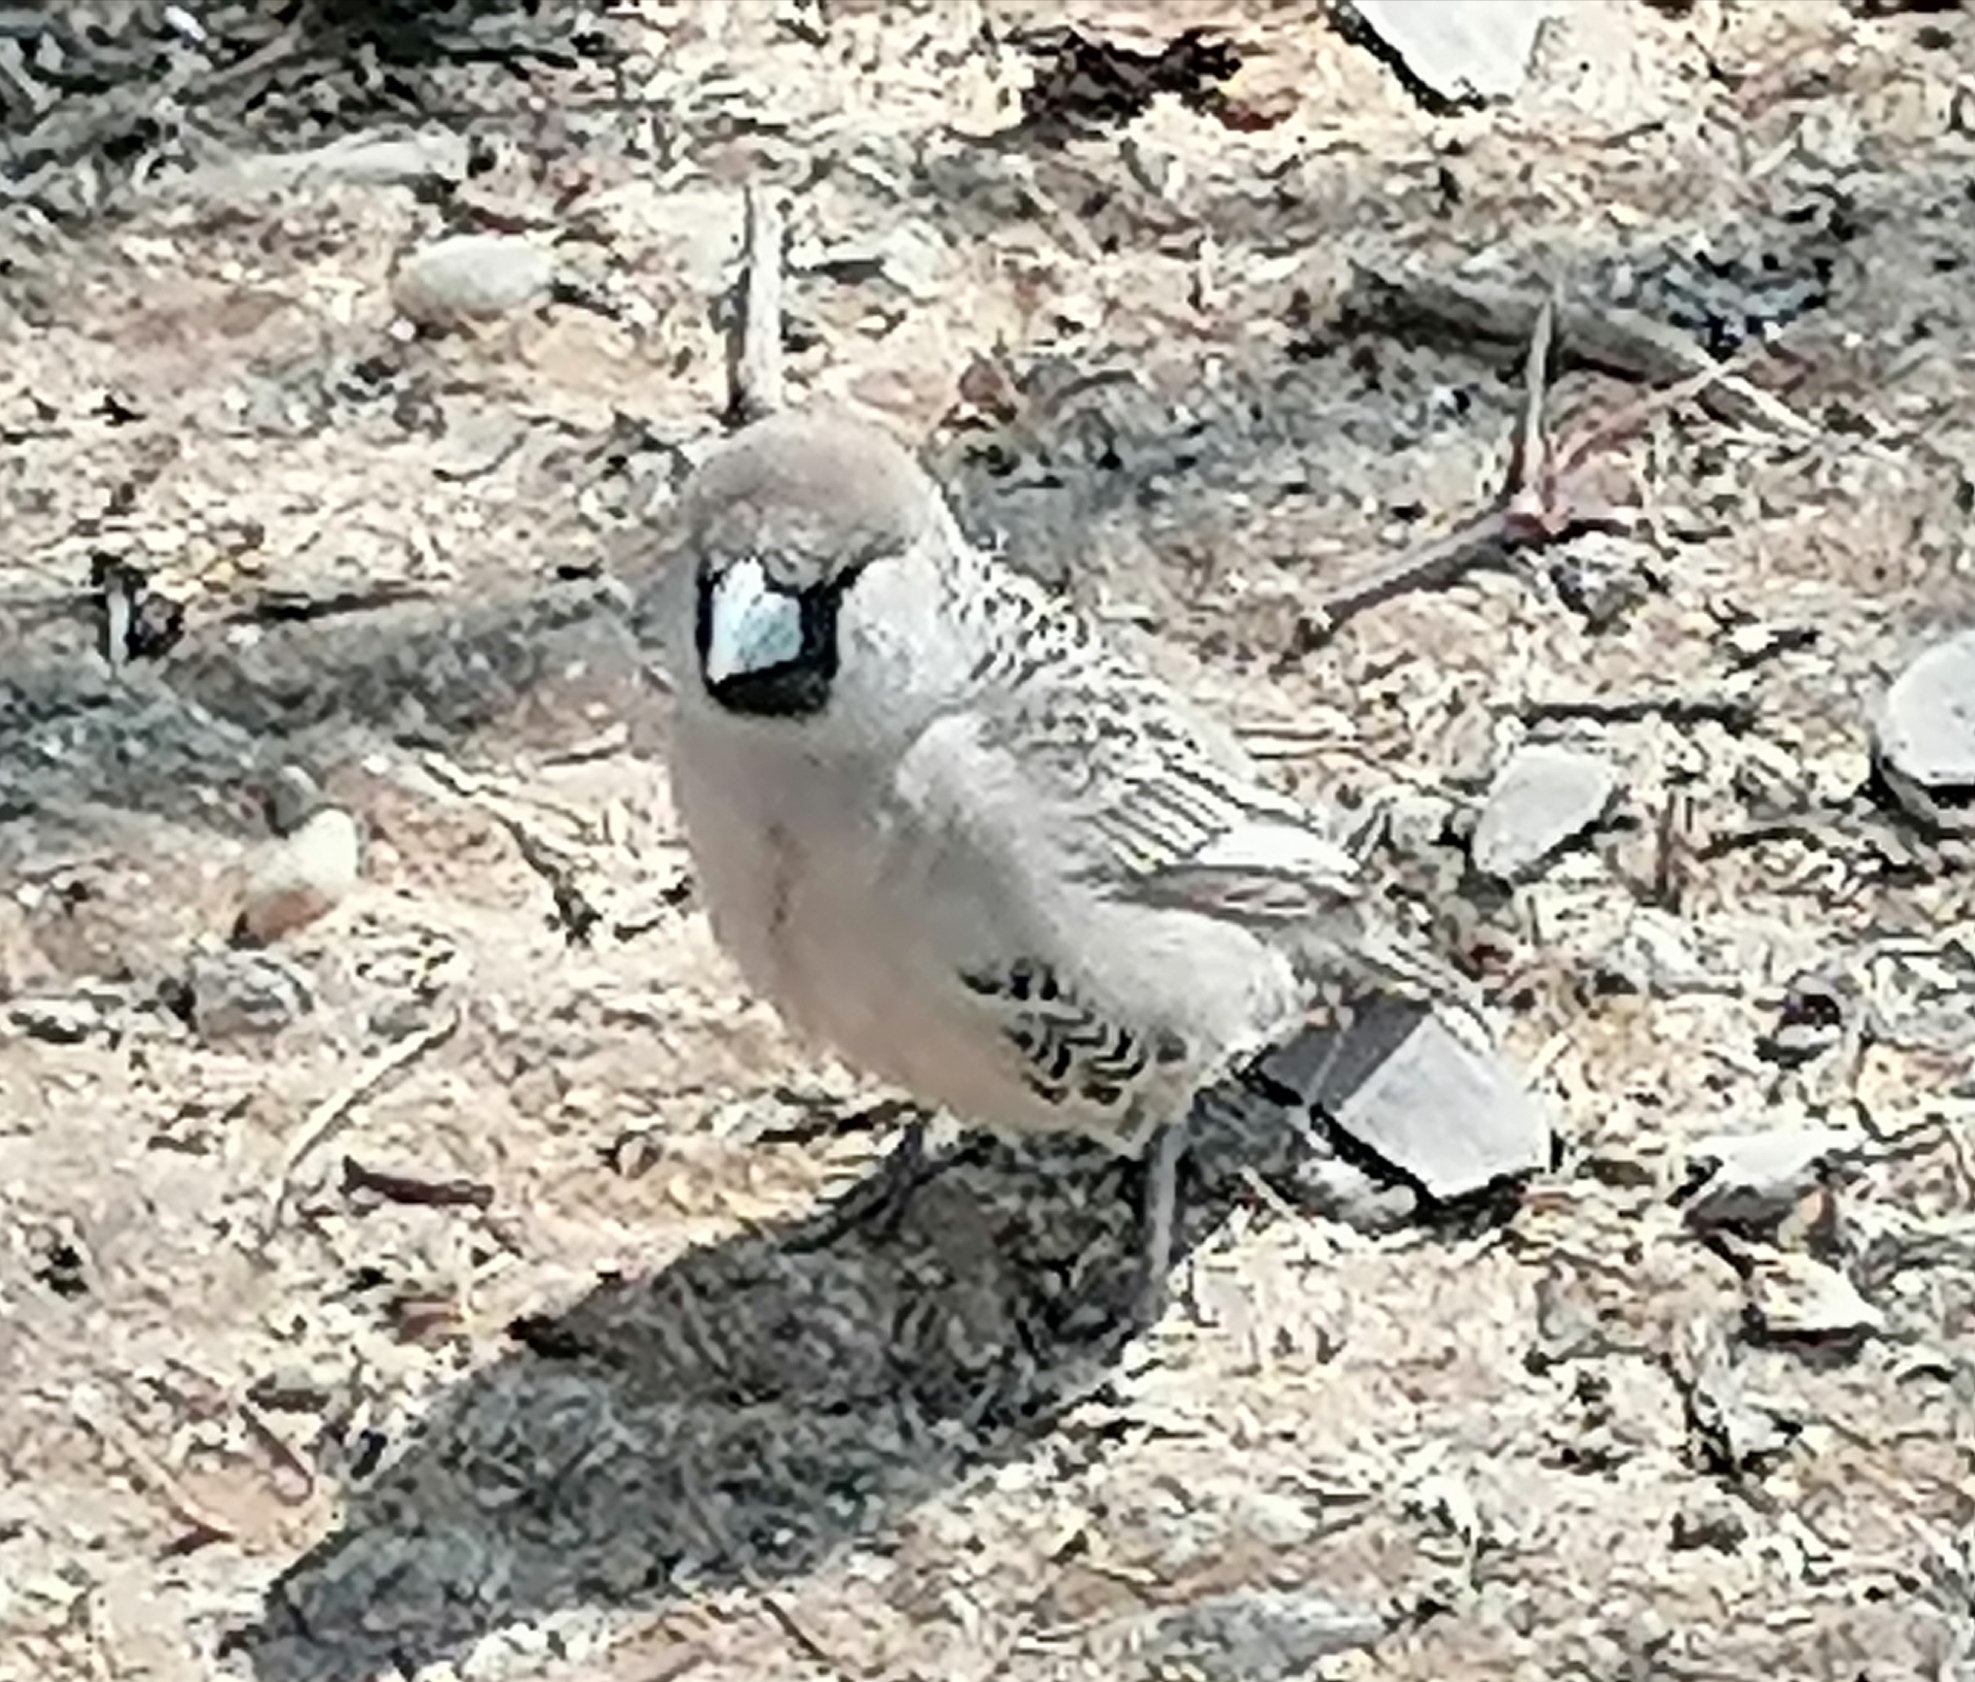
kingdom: Animalia
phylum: Chordata
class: Aves
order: Passeriformes
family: Passeridae
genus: Philetairus
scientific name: Philetairus socius
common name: Sociable weaver
